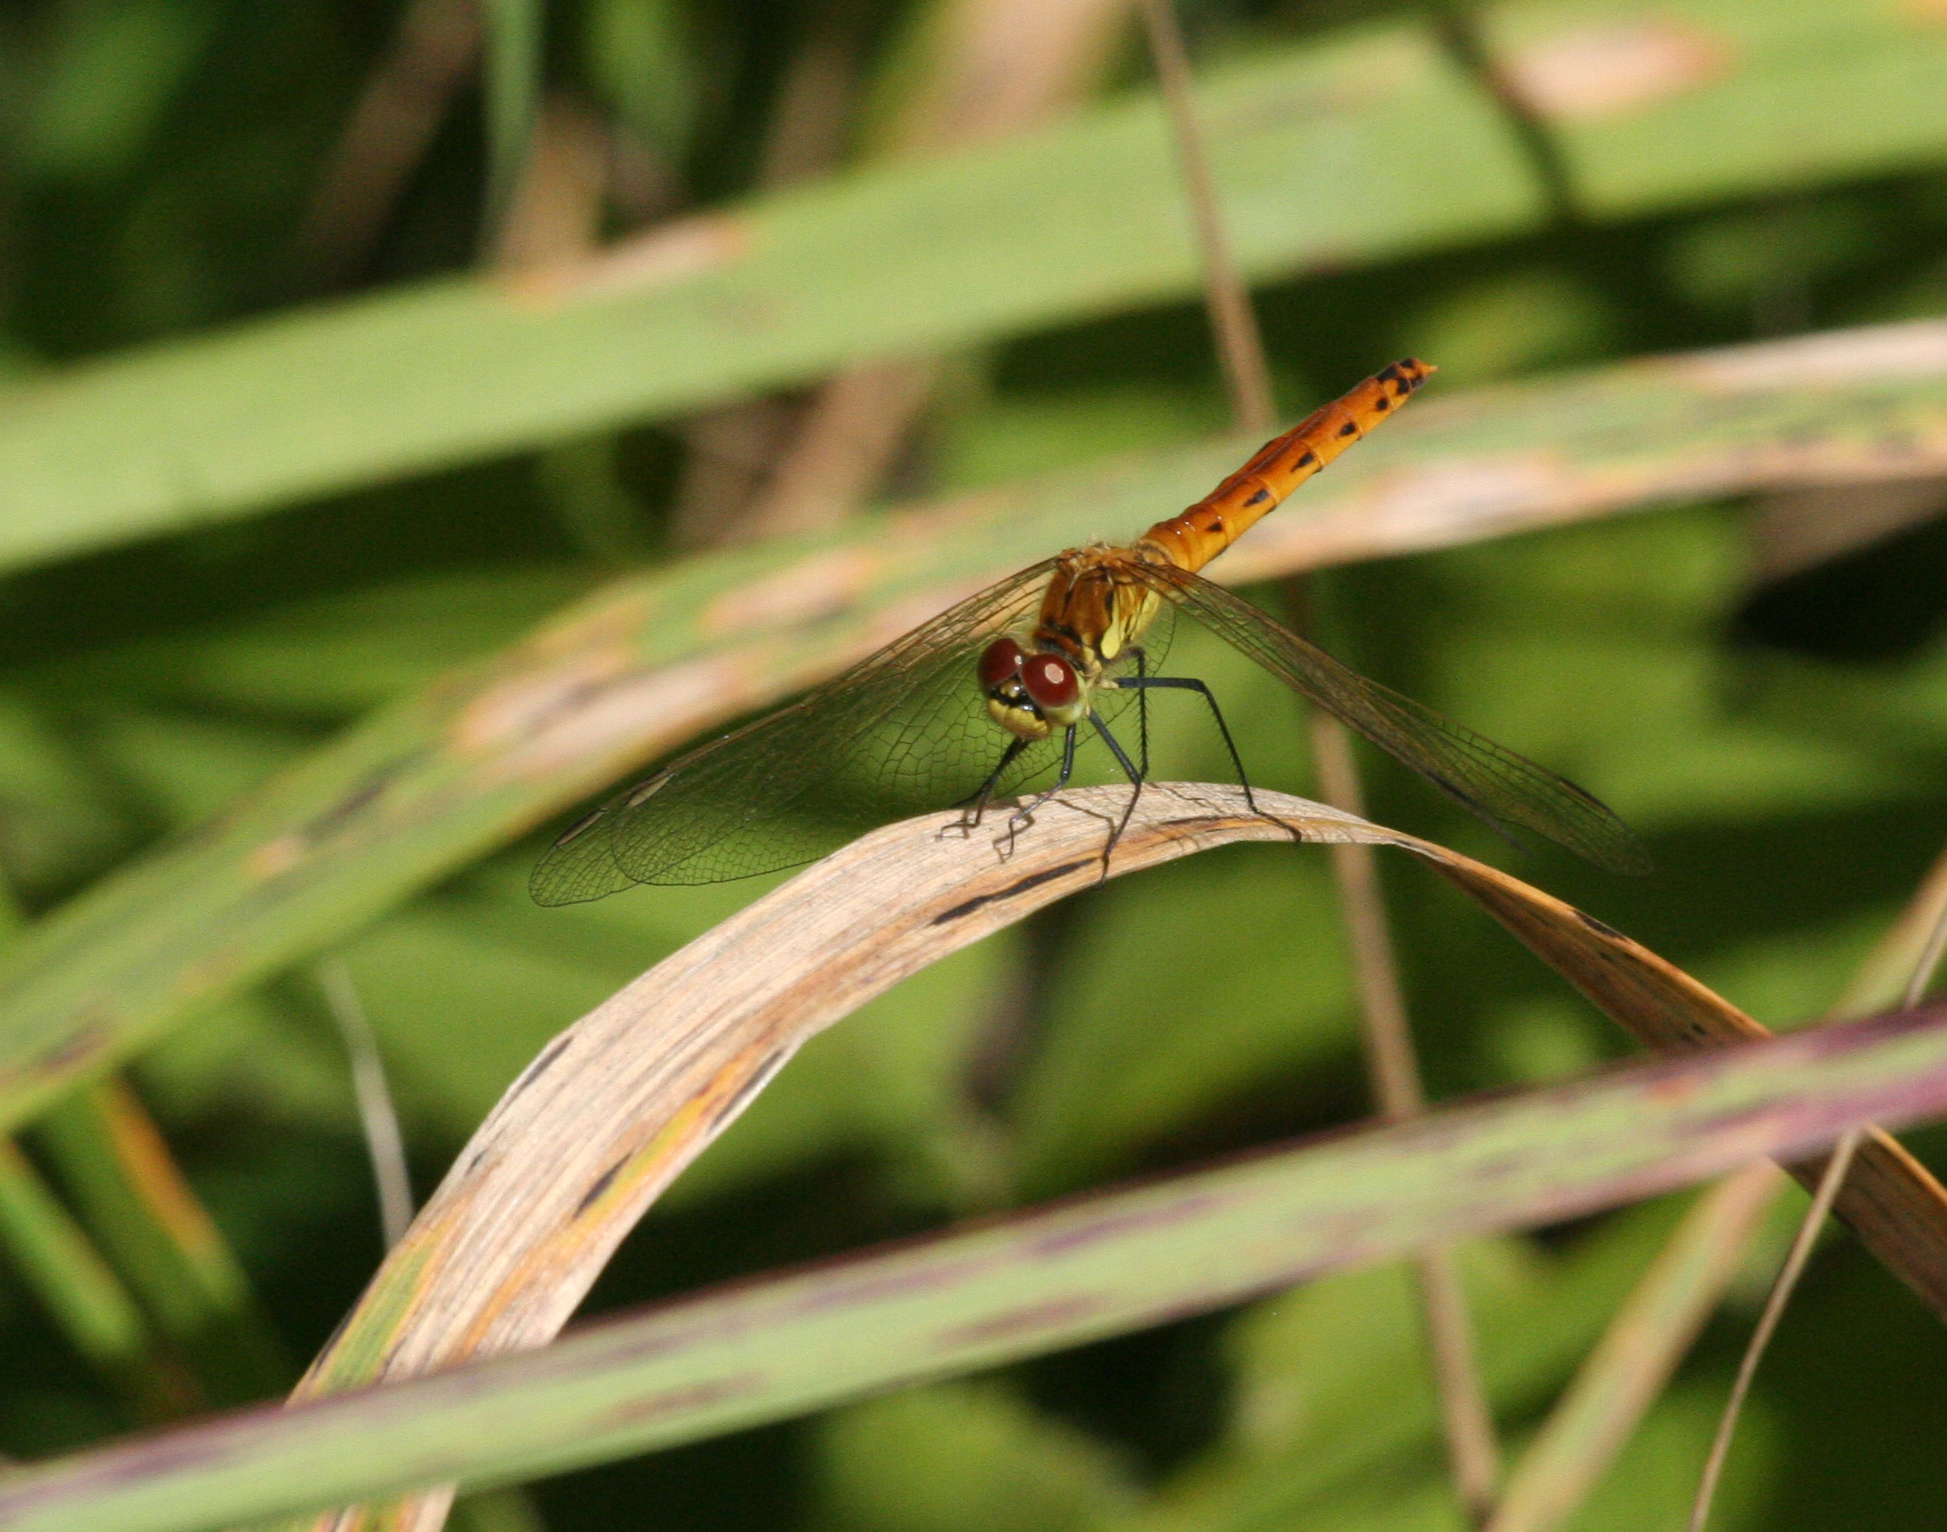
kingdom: Animalia
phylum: Arthropoda
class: Insecta
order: Odonata
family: Libellulidae
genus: Sympetrum
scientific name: Sympetrum depressiusculum
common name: Spotted darter
